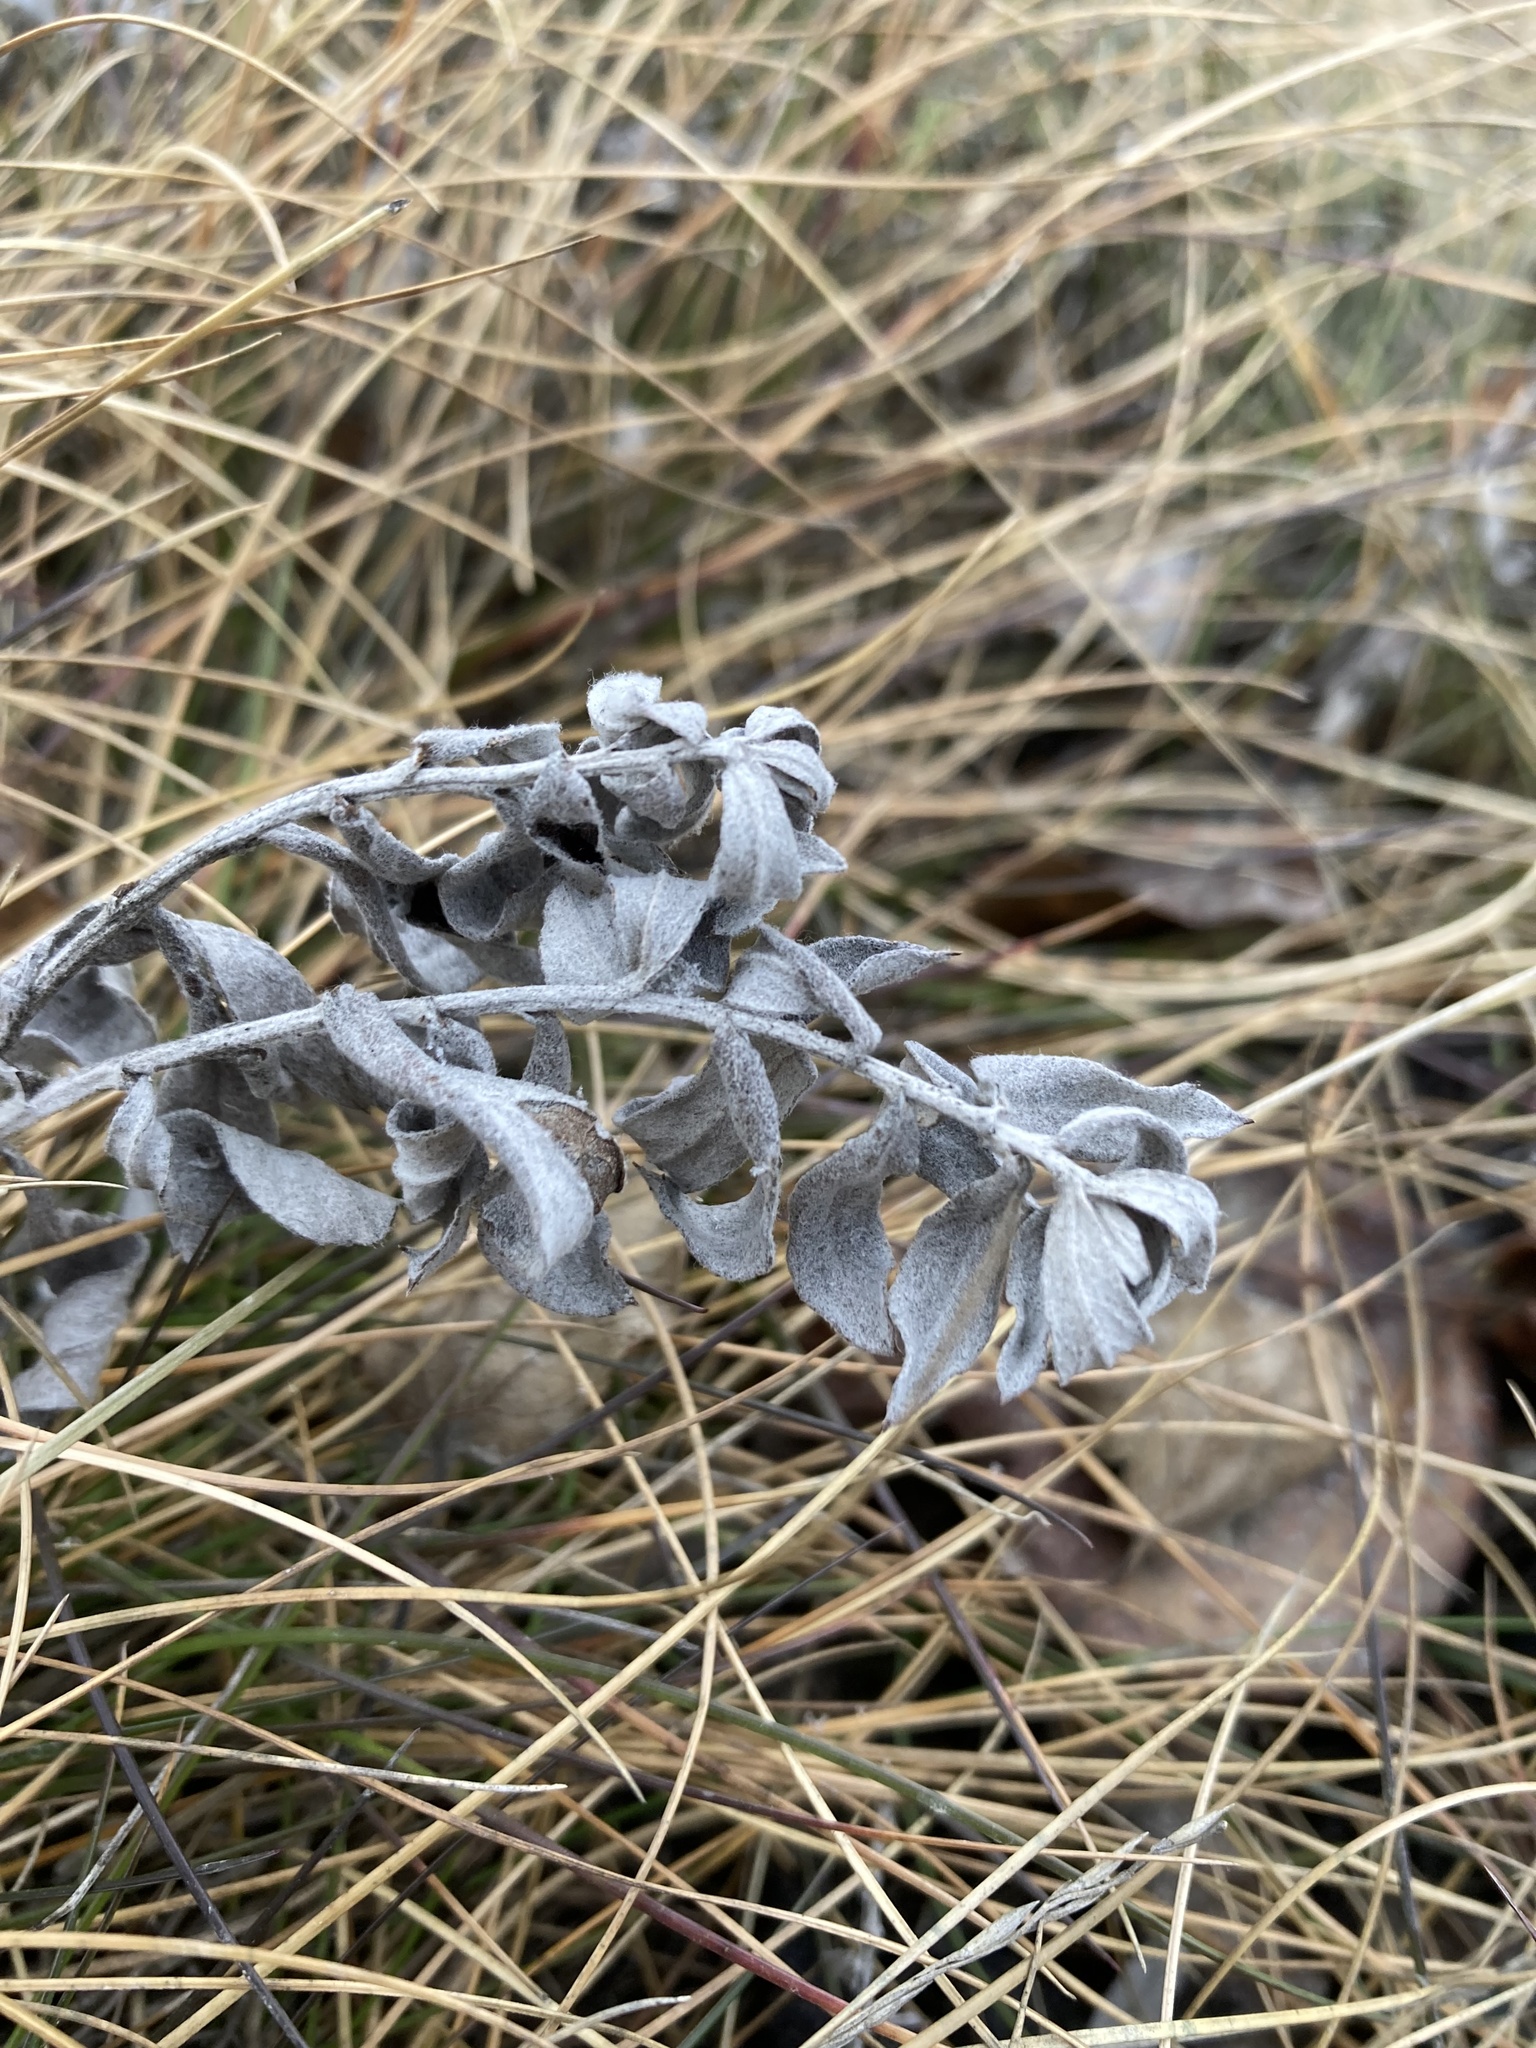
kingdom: Plantae
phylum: Tracheophyta
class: Magnoliopsida
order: Asterales
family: Asteraceae
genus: Artemisia
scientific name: Artemisia ludoviciana
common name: Western mugwort
